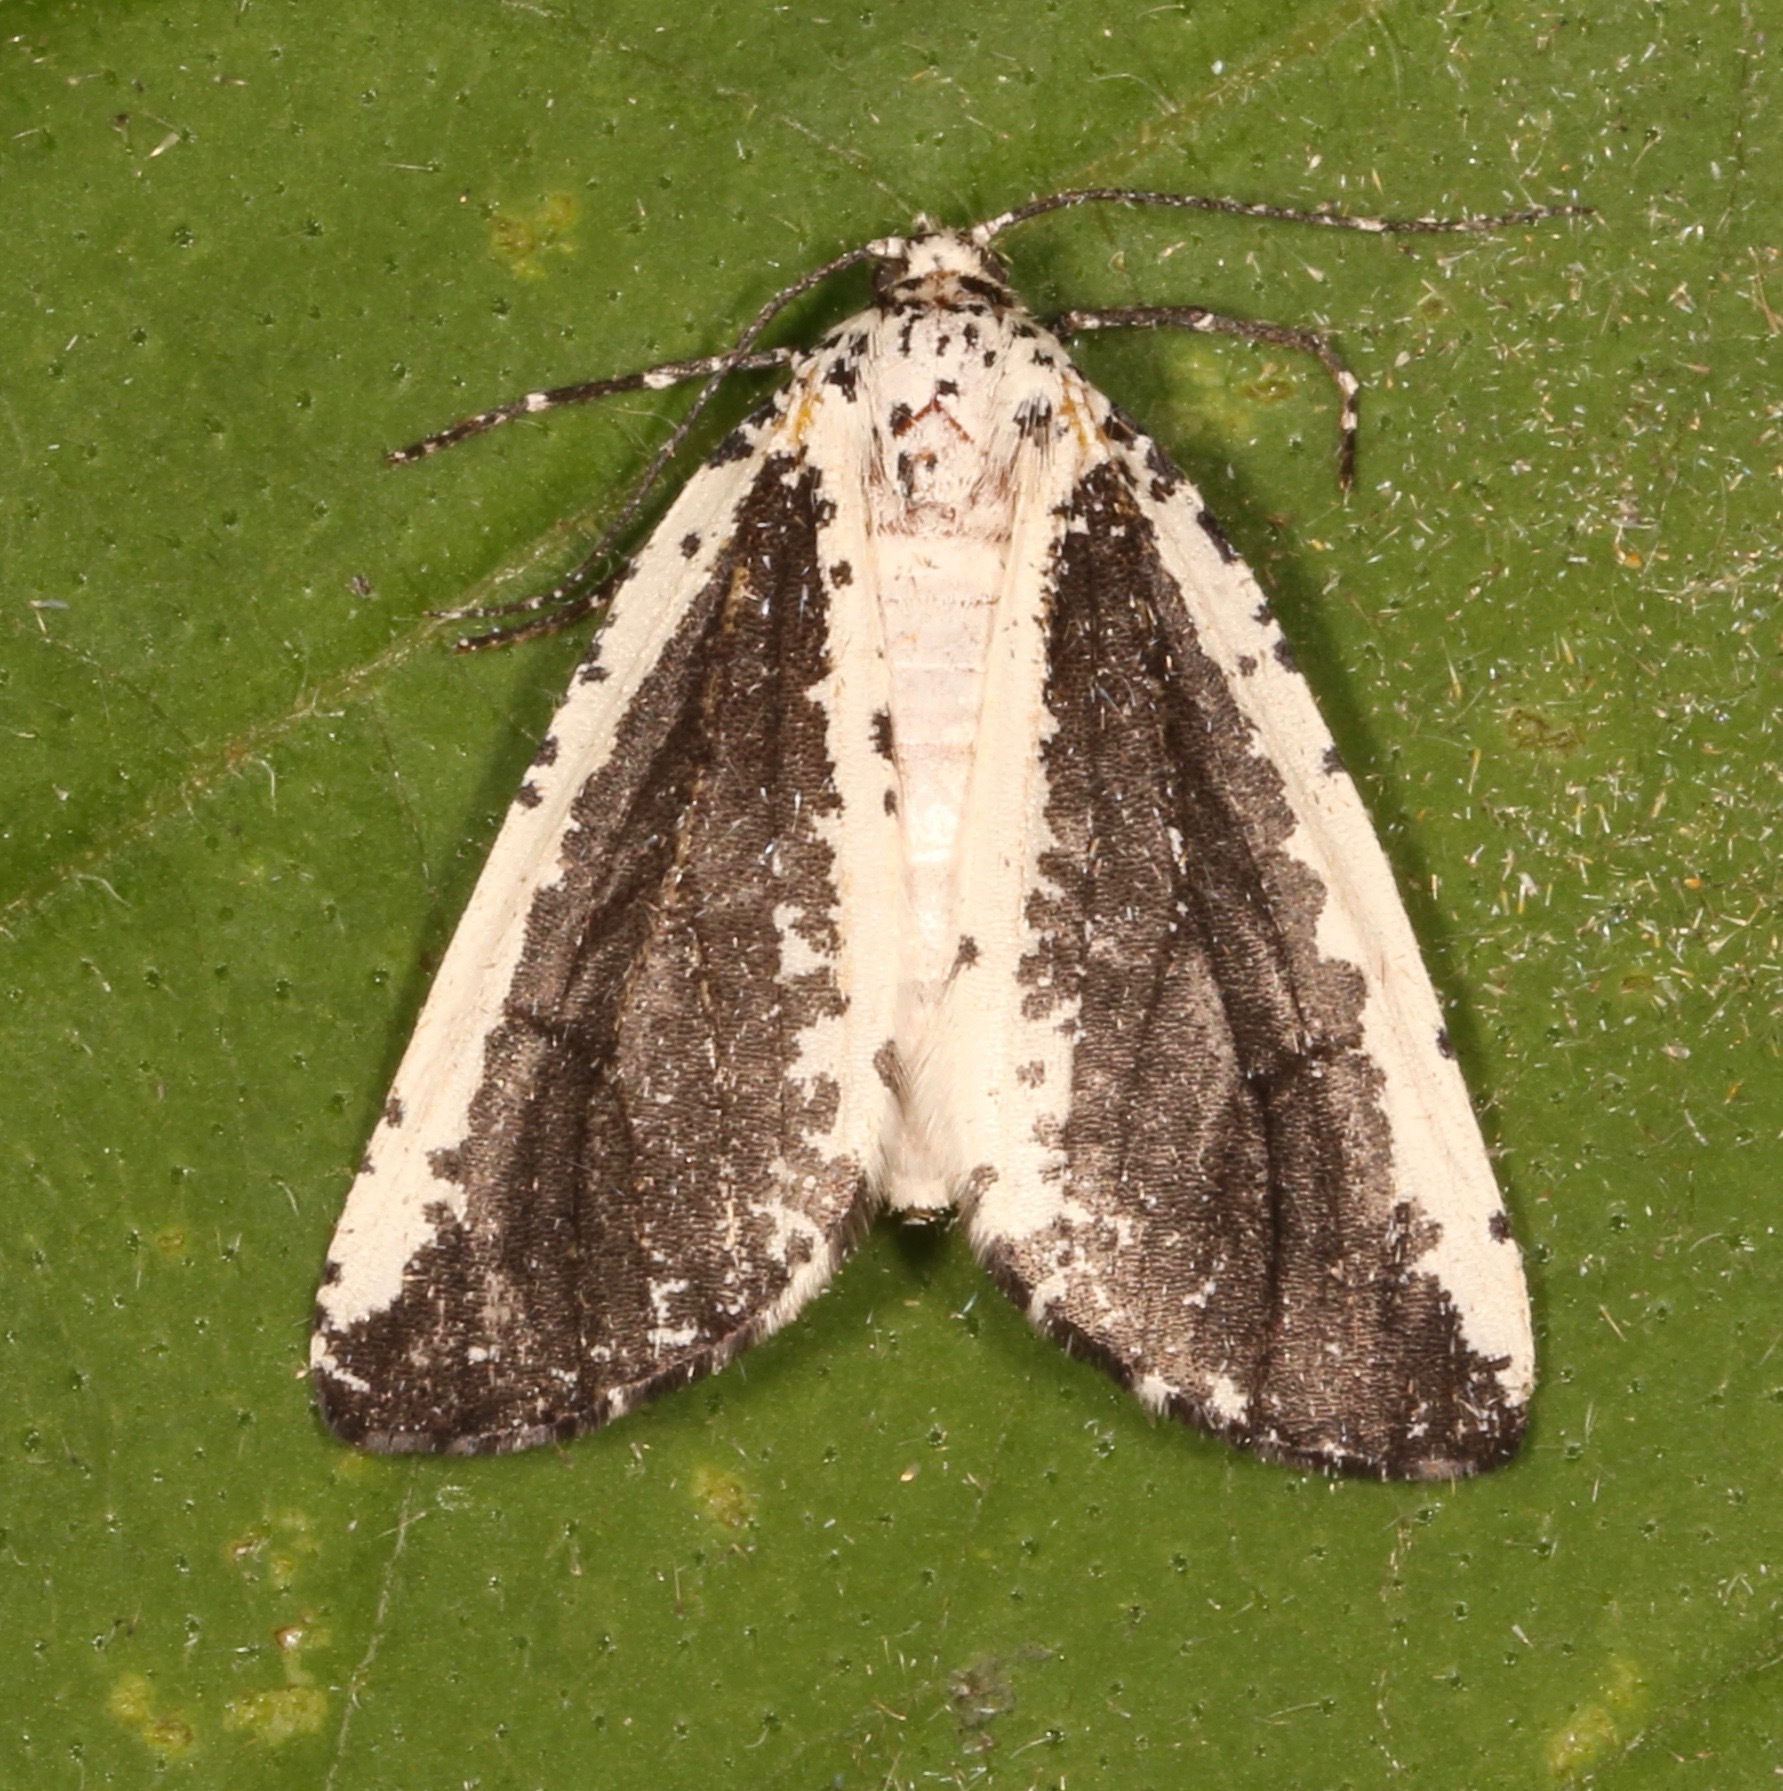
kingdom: Animalia
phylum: Arthropoda
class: Insecta
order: Lepidoptera
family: Geometridae
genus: Eucaterva
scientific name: Eucaterva variaria
